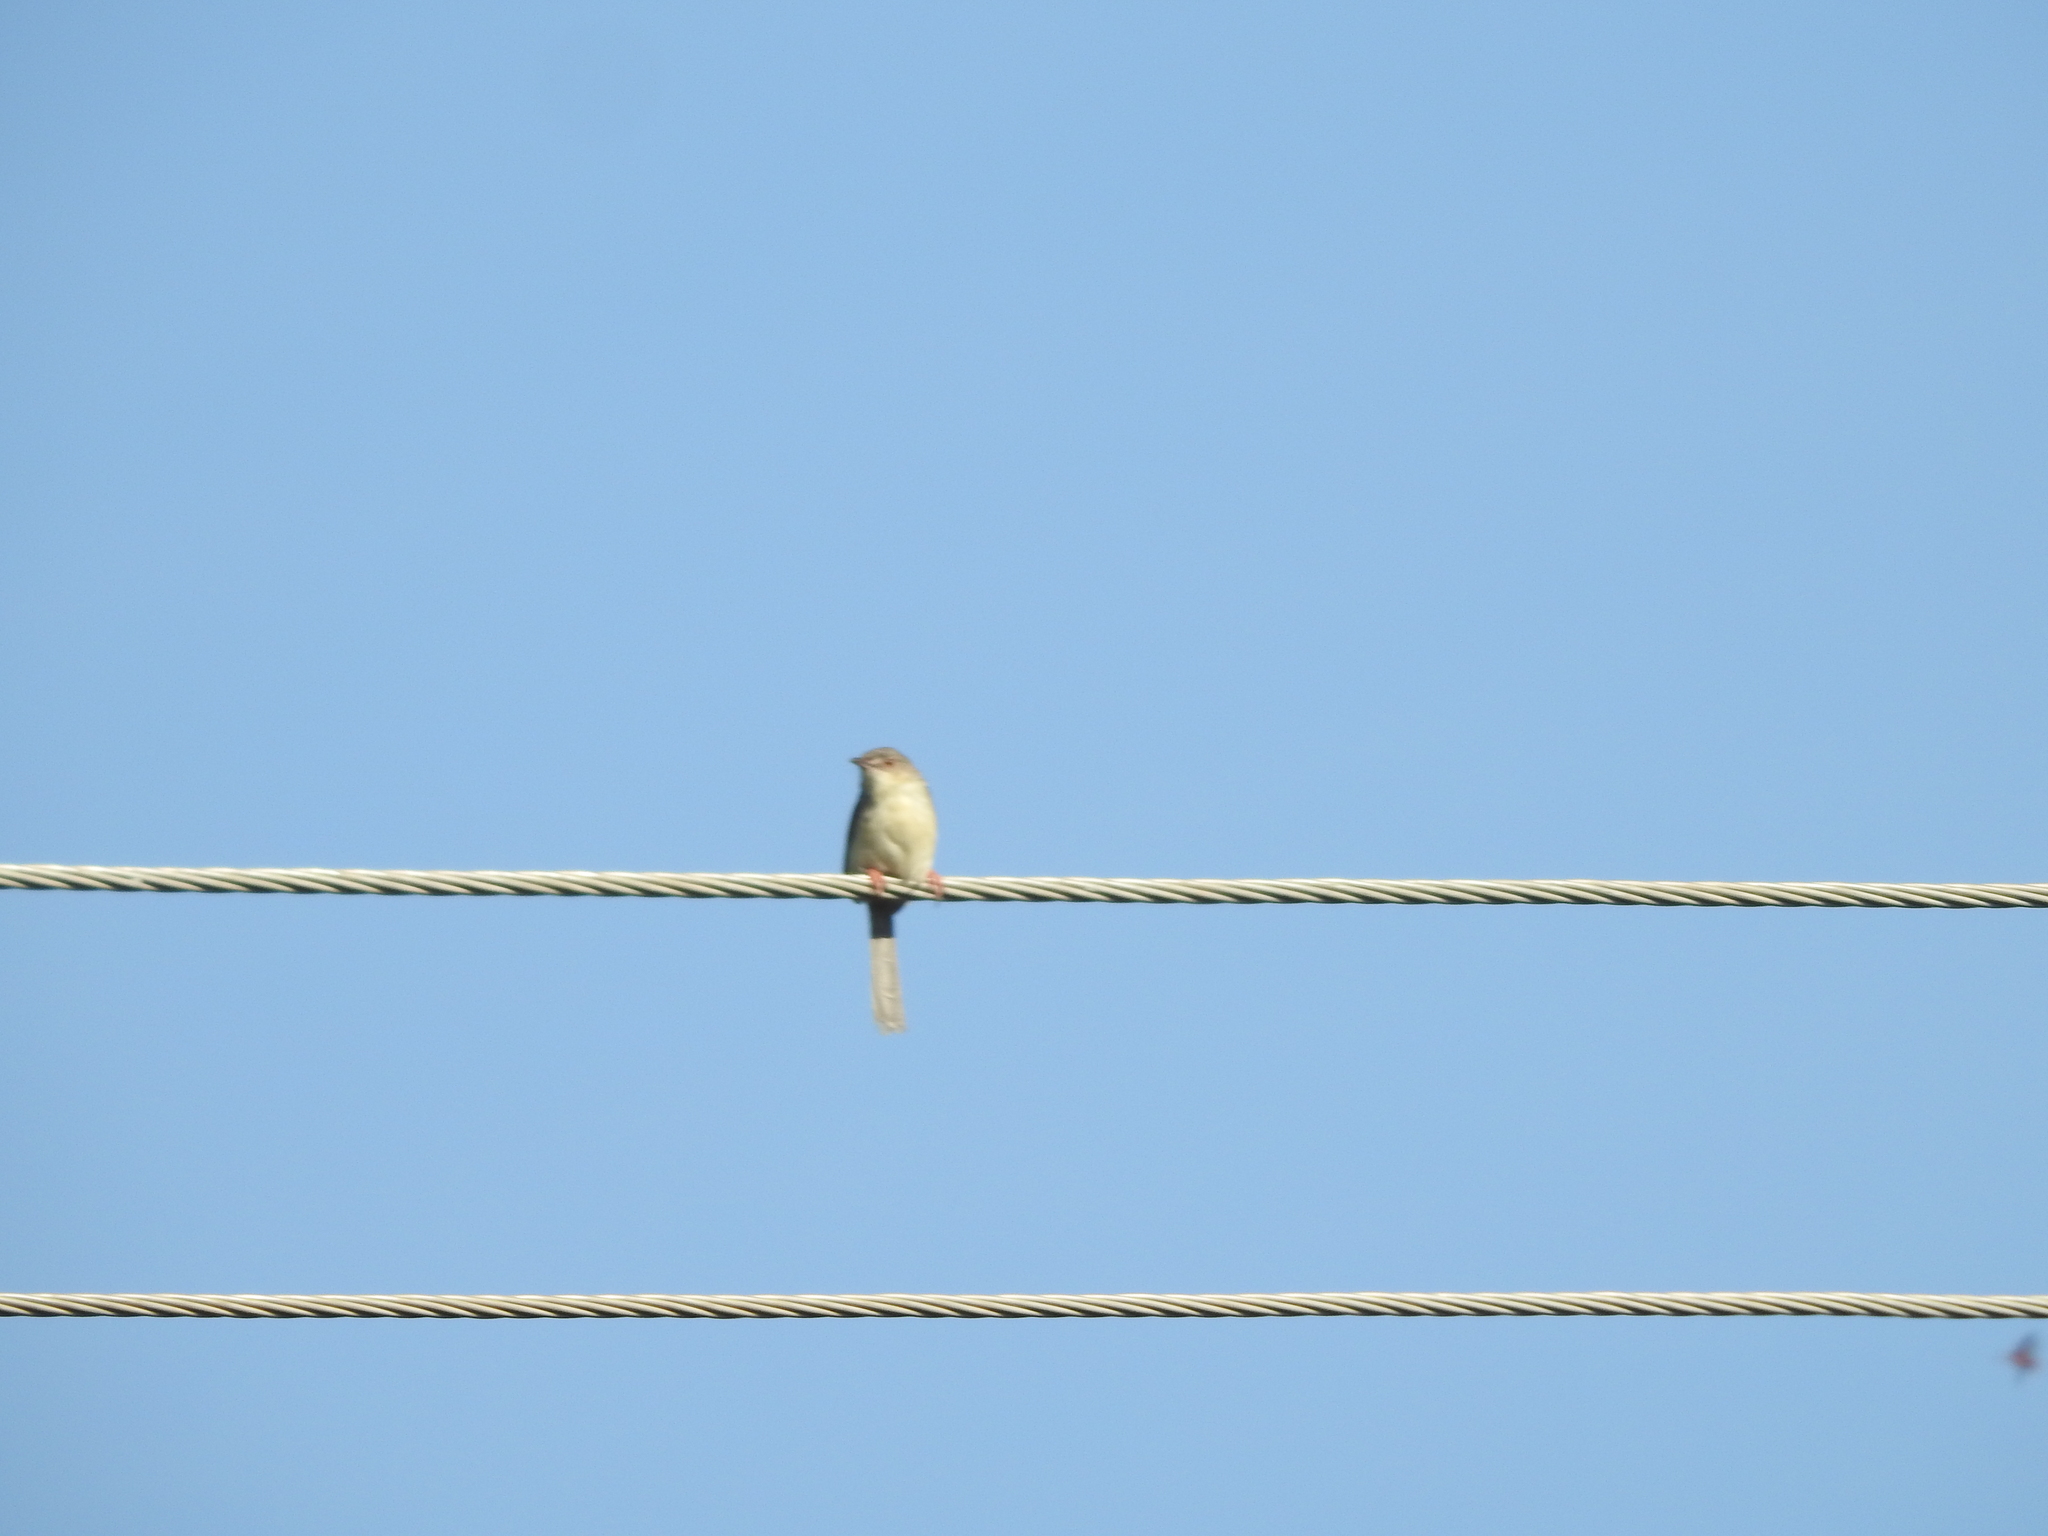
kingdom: Animalia
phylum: Chordata
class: Aves
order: Passeriformes
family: Cisticolidae
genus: Prinia
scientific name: Prinia sylvatica
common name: Jungle prinia
